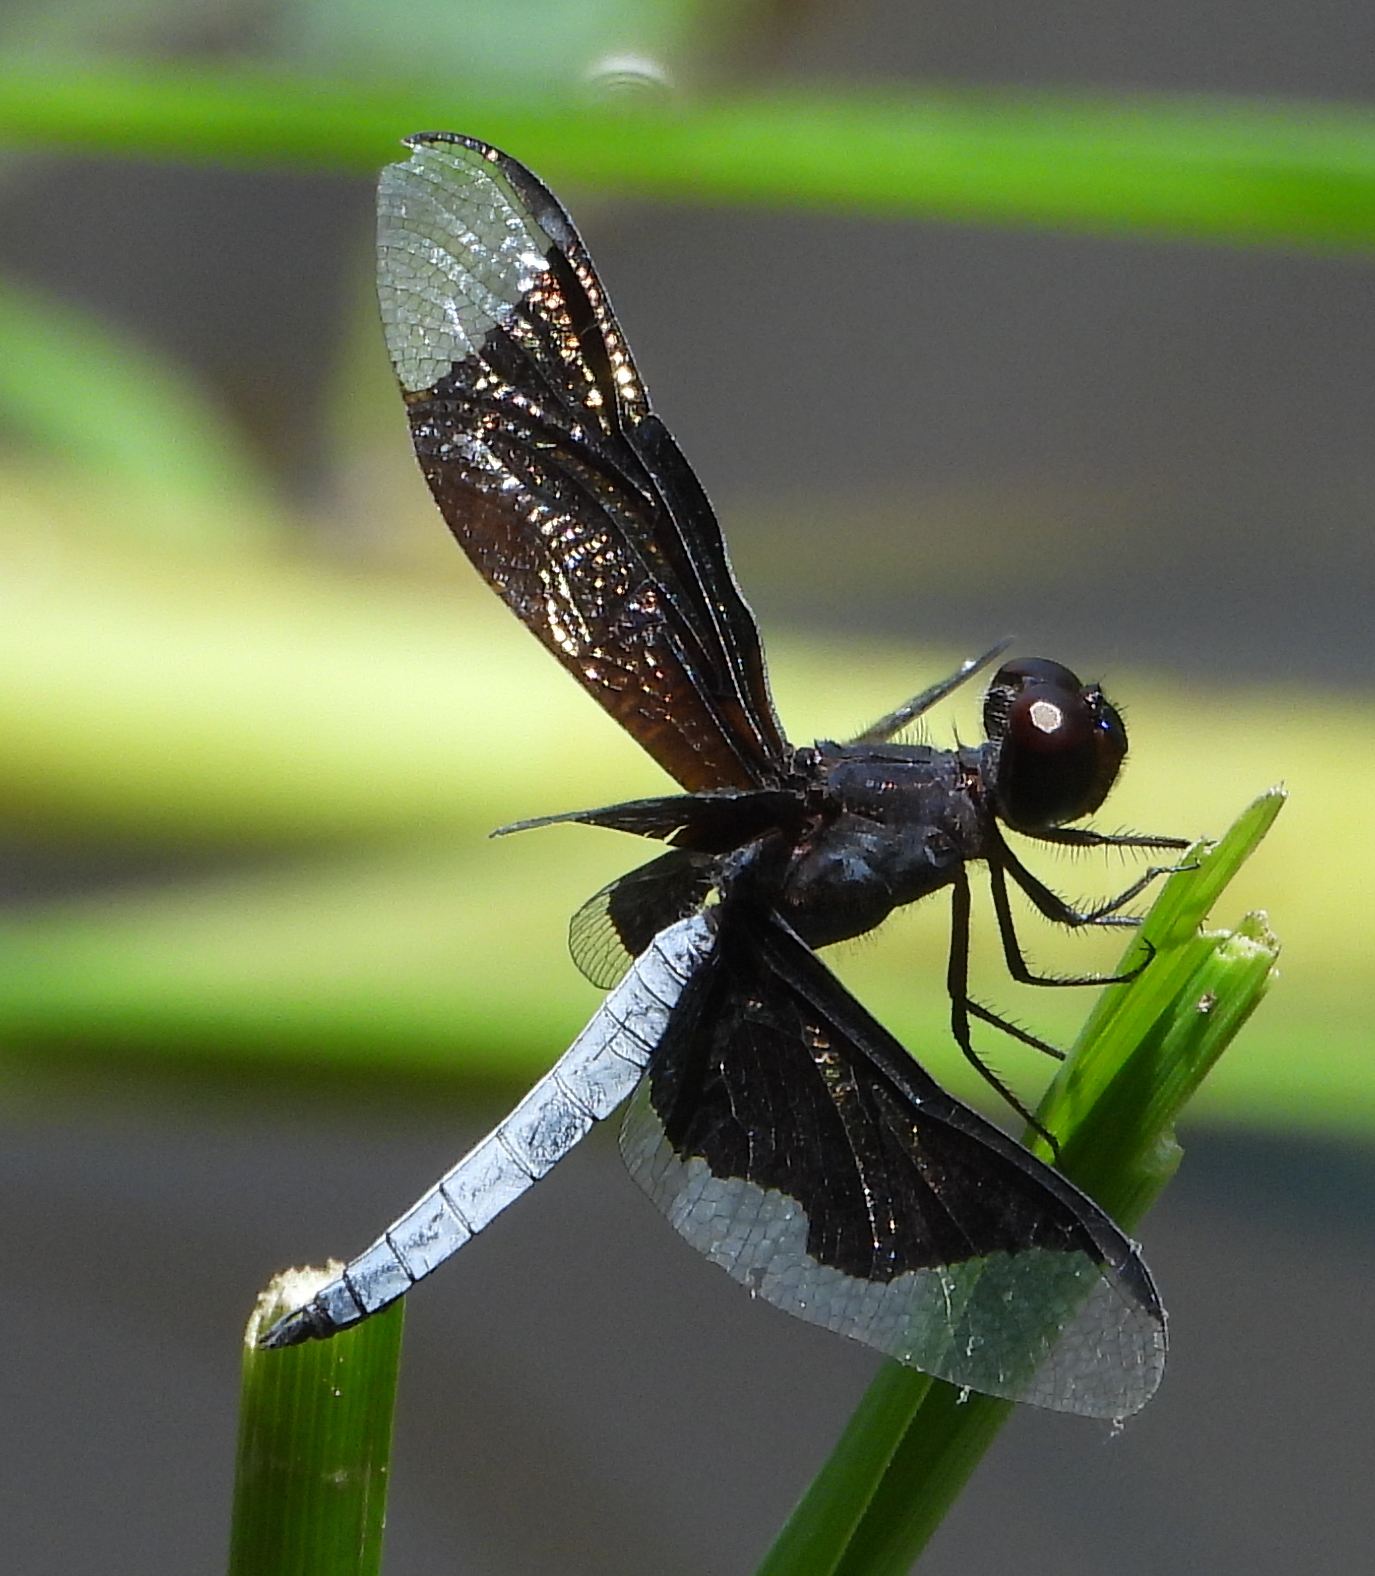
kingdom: Animalia
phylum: Arthropoda
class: Insecta
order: Odonata
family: Libellulidae
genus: Palpopleura
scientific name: Palpopleura lucia
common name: Lucia widow
